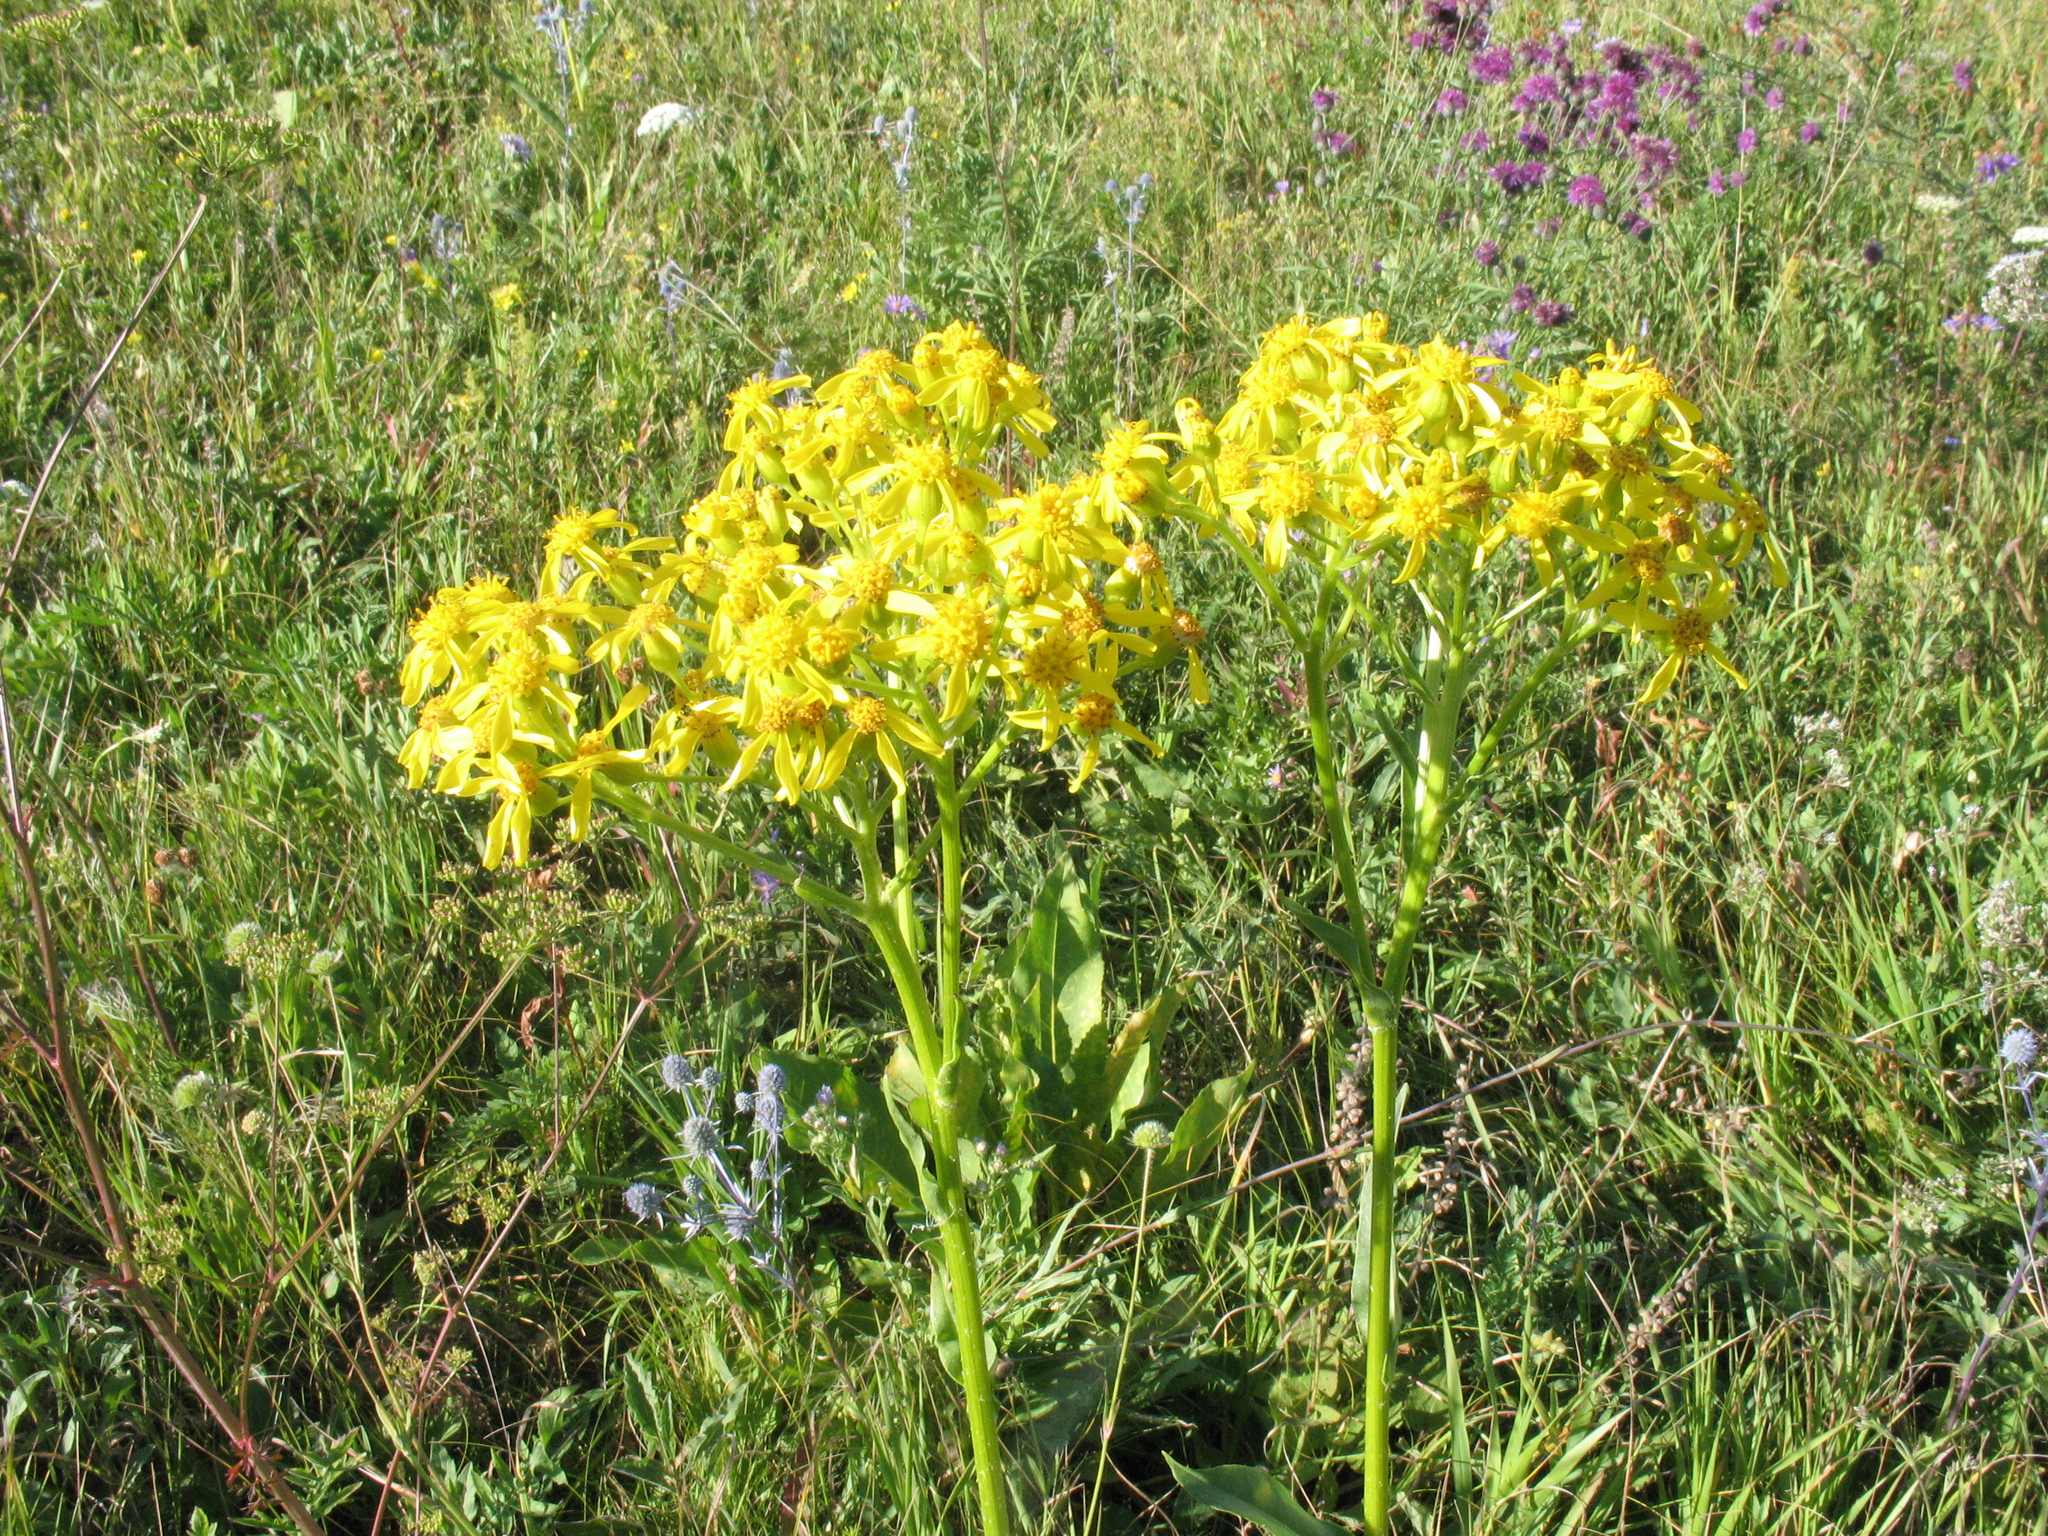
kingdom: Plantae
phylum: Tracheophyta
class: Magnoliopsida
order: Asterales
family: Asteraceae
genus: Senecio
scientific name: Senecio doria
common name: Golden ragwort
